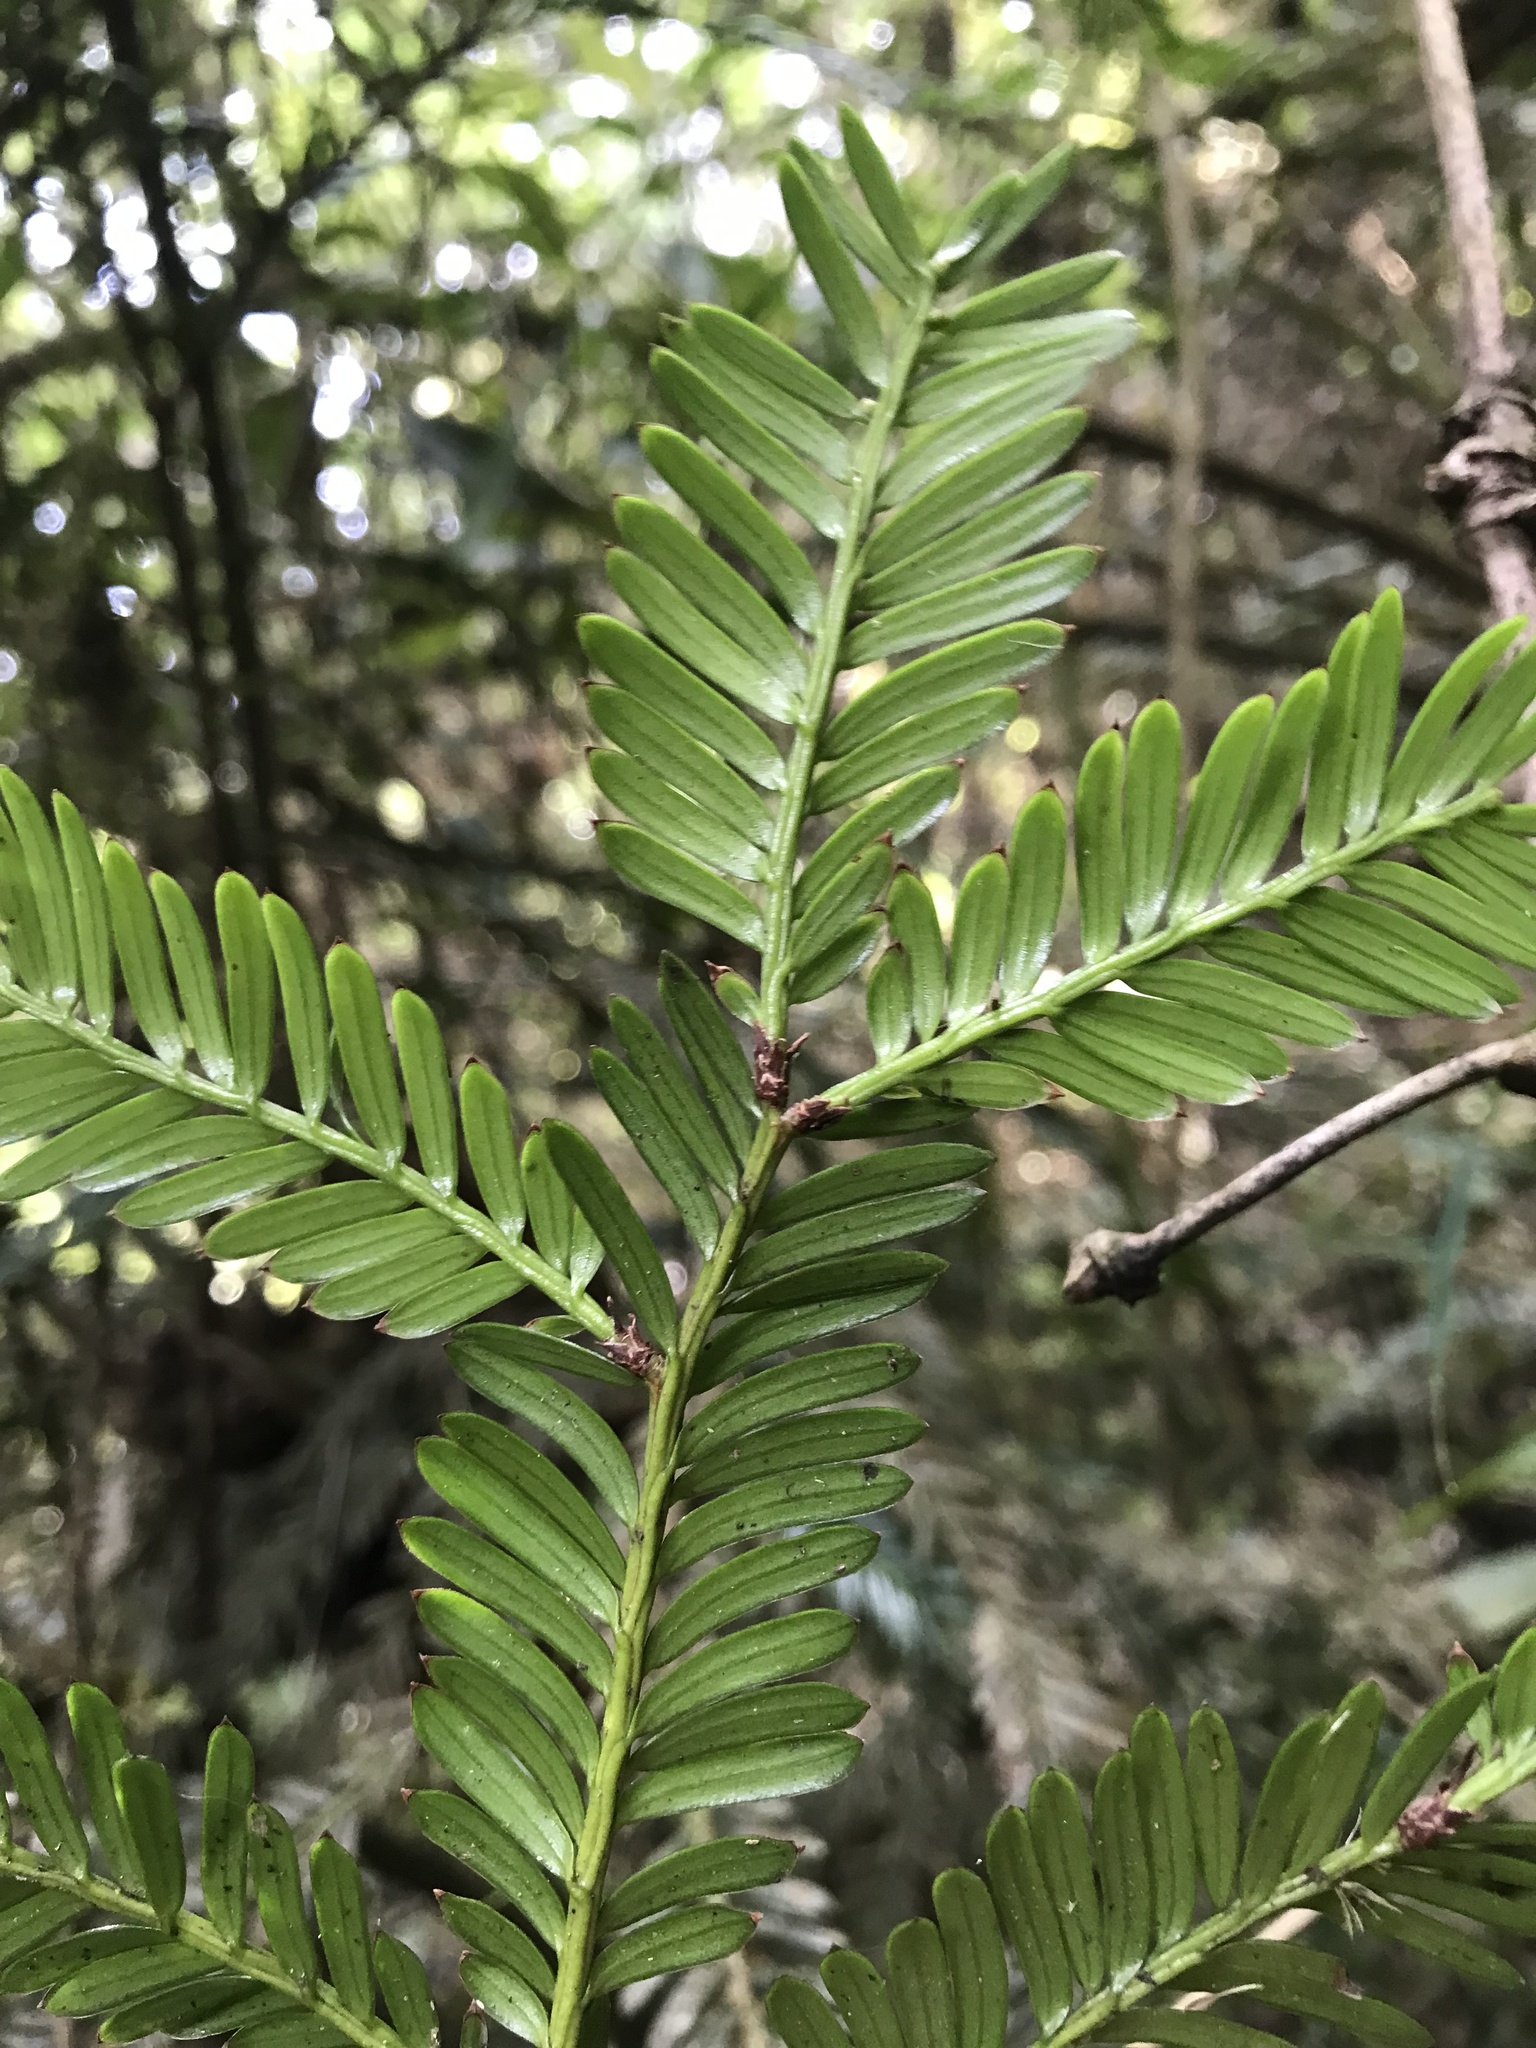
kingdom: Plantae
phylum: Tracheophyta
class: Pinopsida
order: Pinales
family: Podocarpaceae
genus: Prumnopitys
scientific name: Prumnopitys montana
